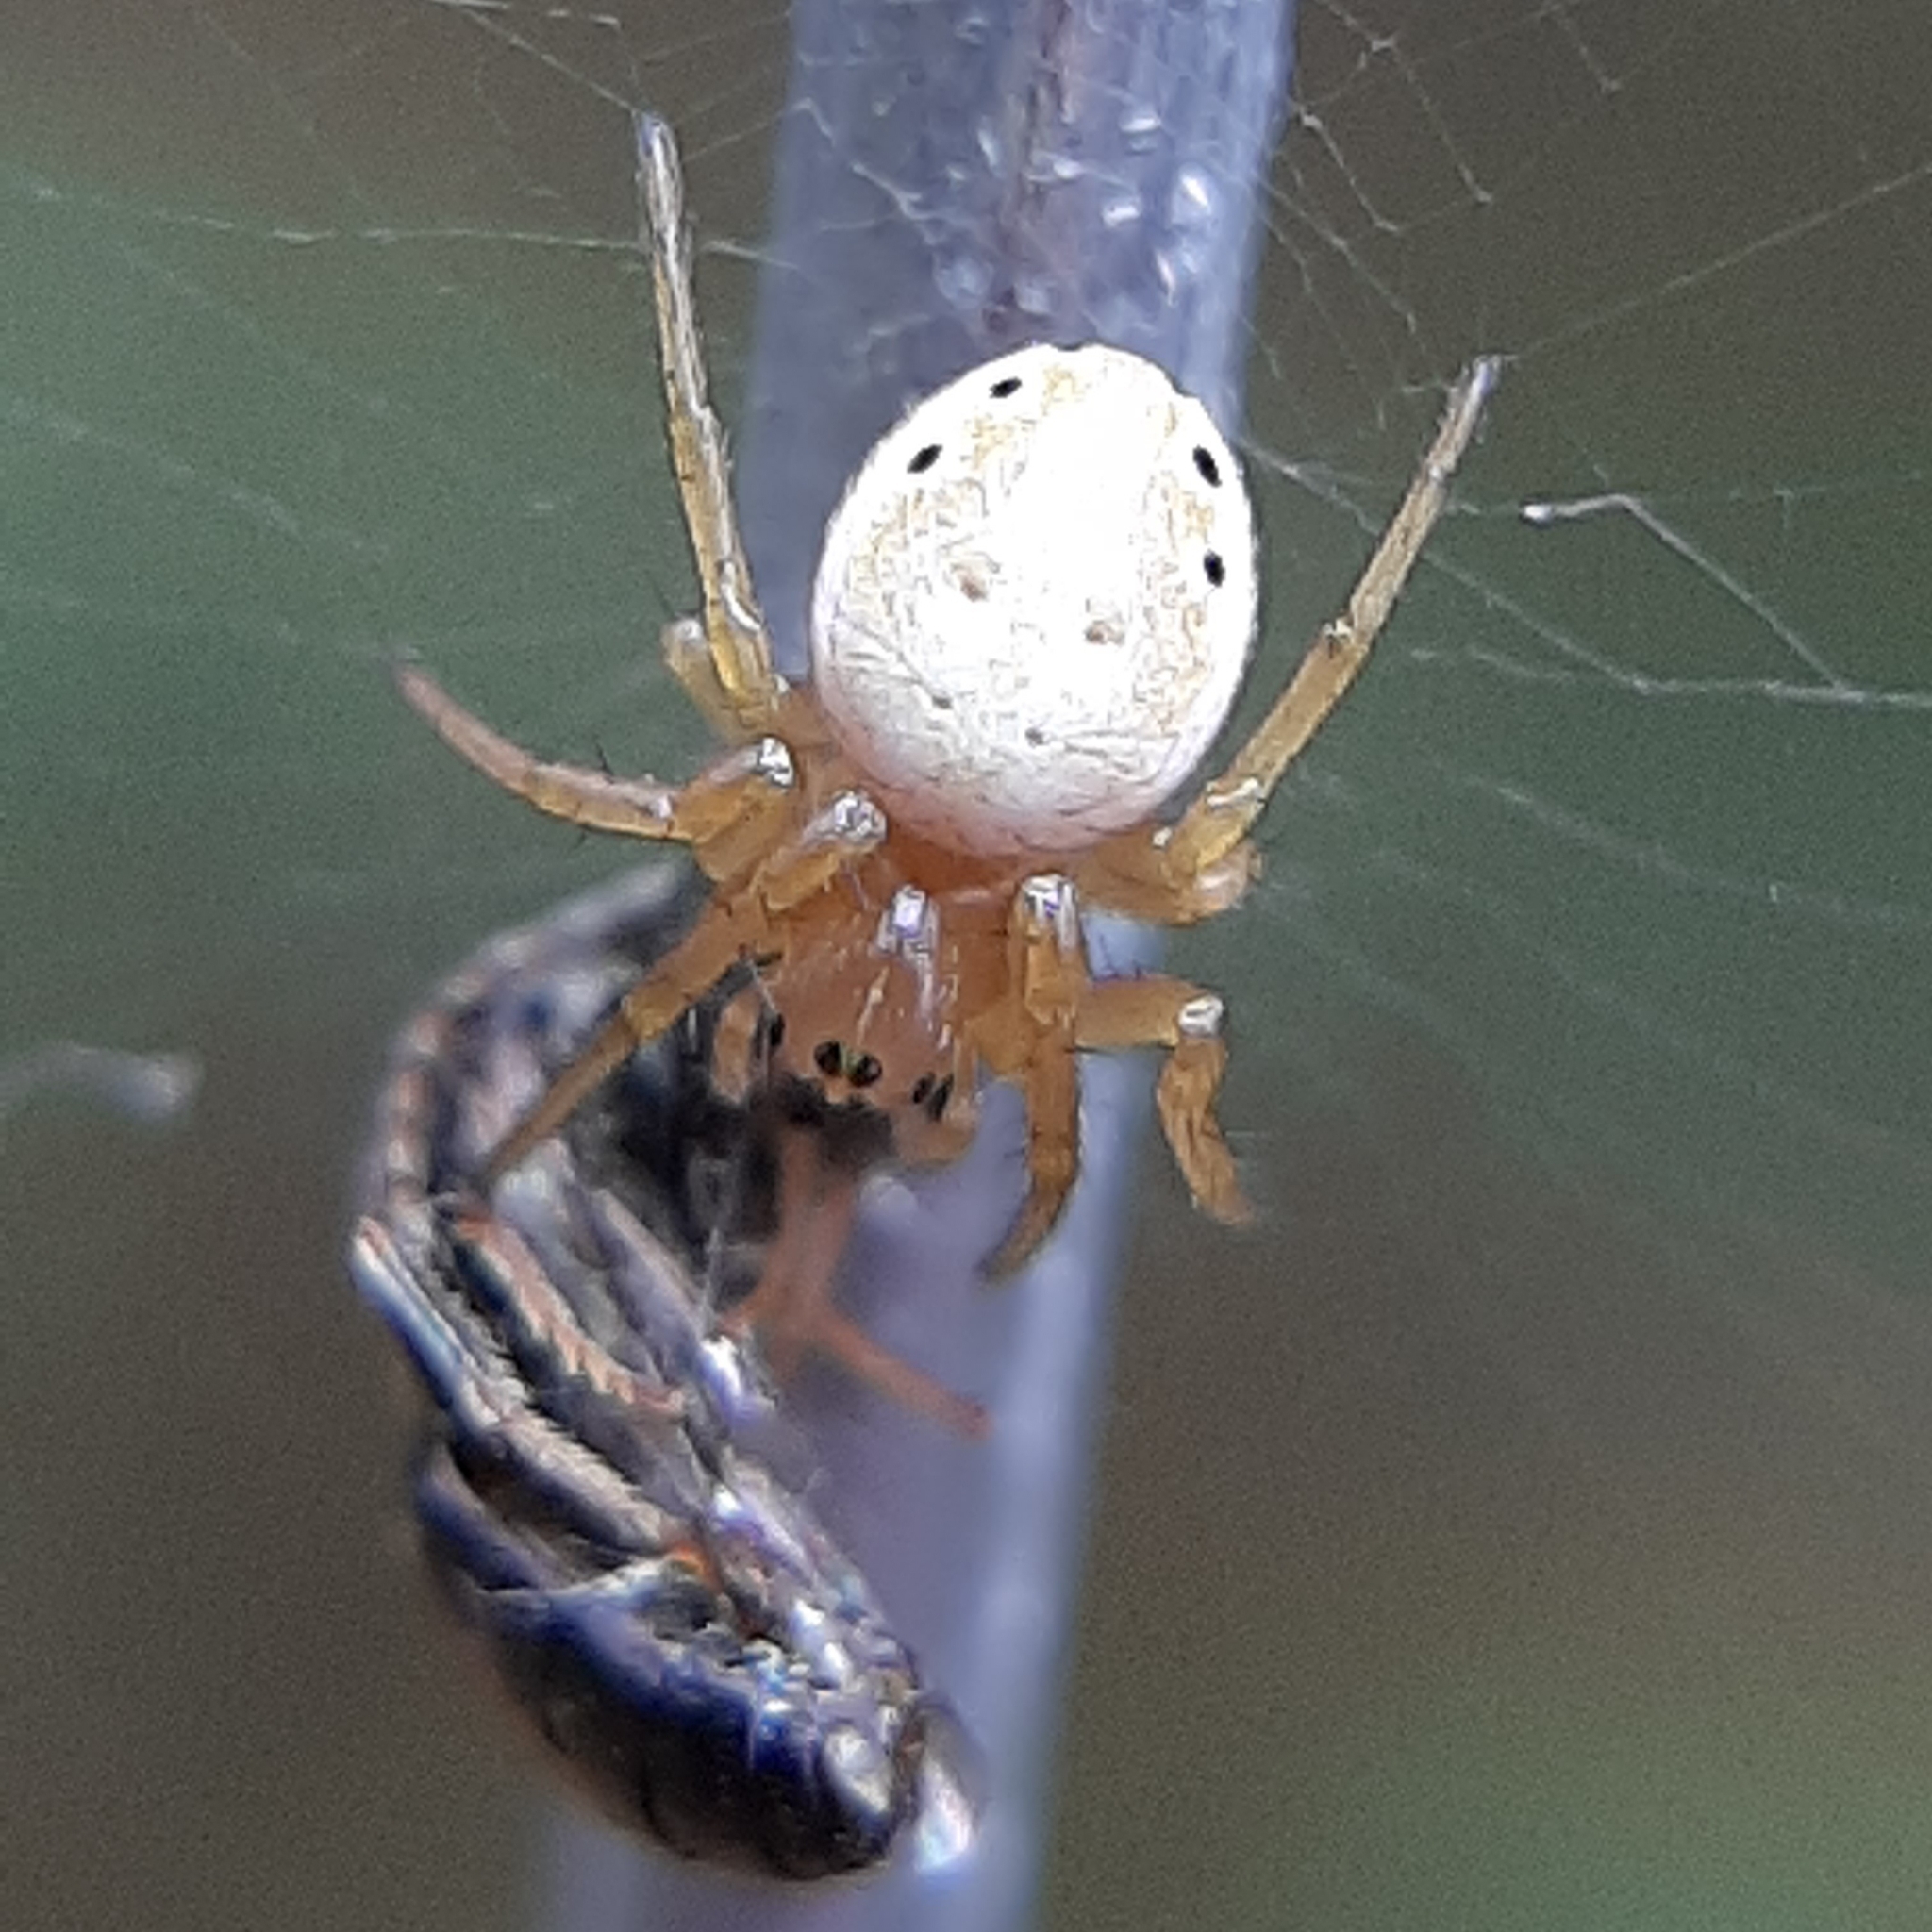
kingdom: Animalia
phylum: Arthropoda
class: Arachnida
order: Araneae
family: Araneidae
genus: Araniella
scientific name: Araniella displicata
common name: Sixspotted orb weaver
